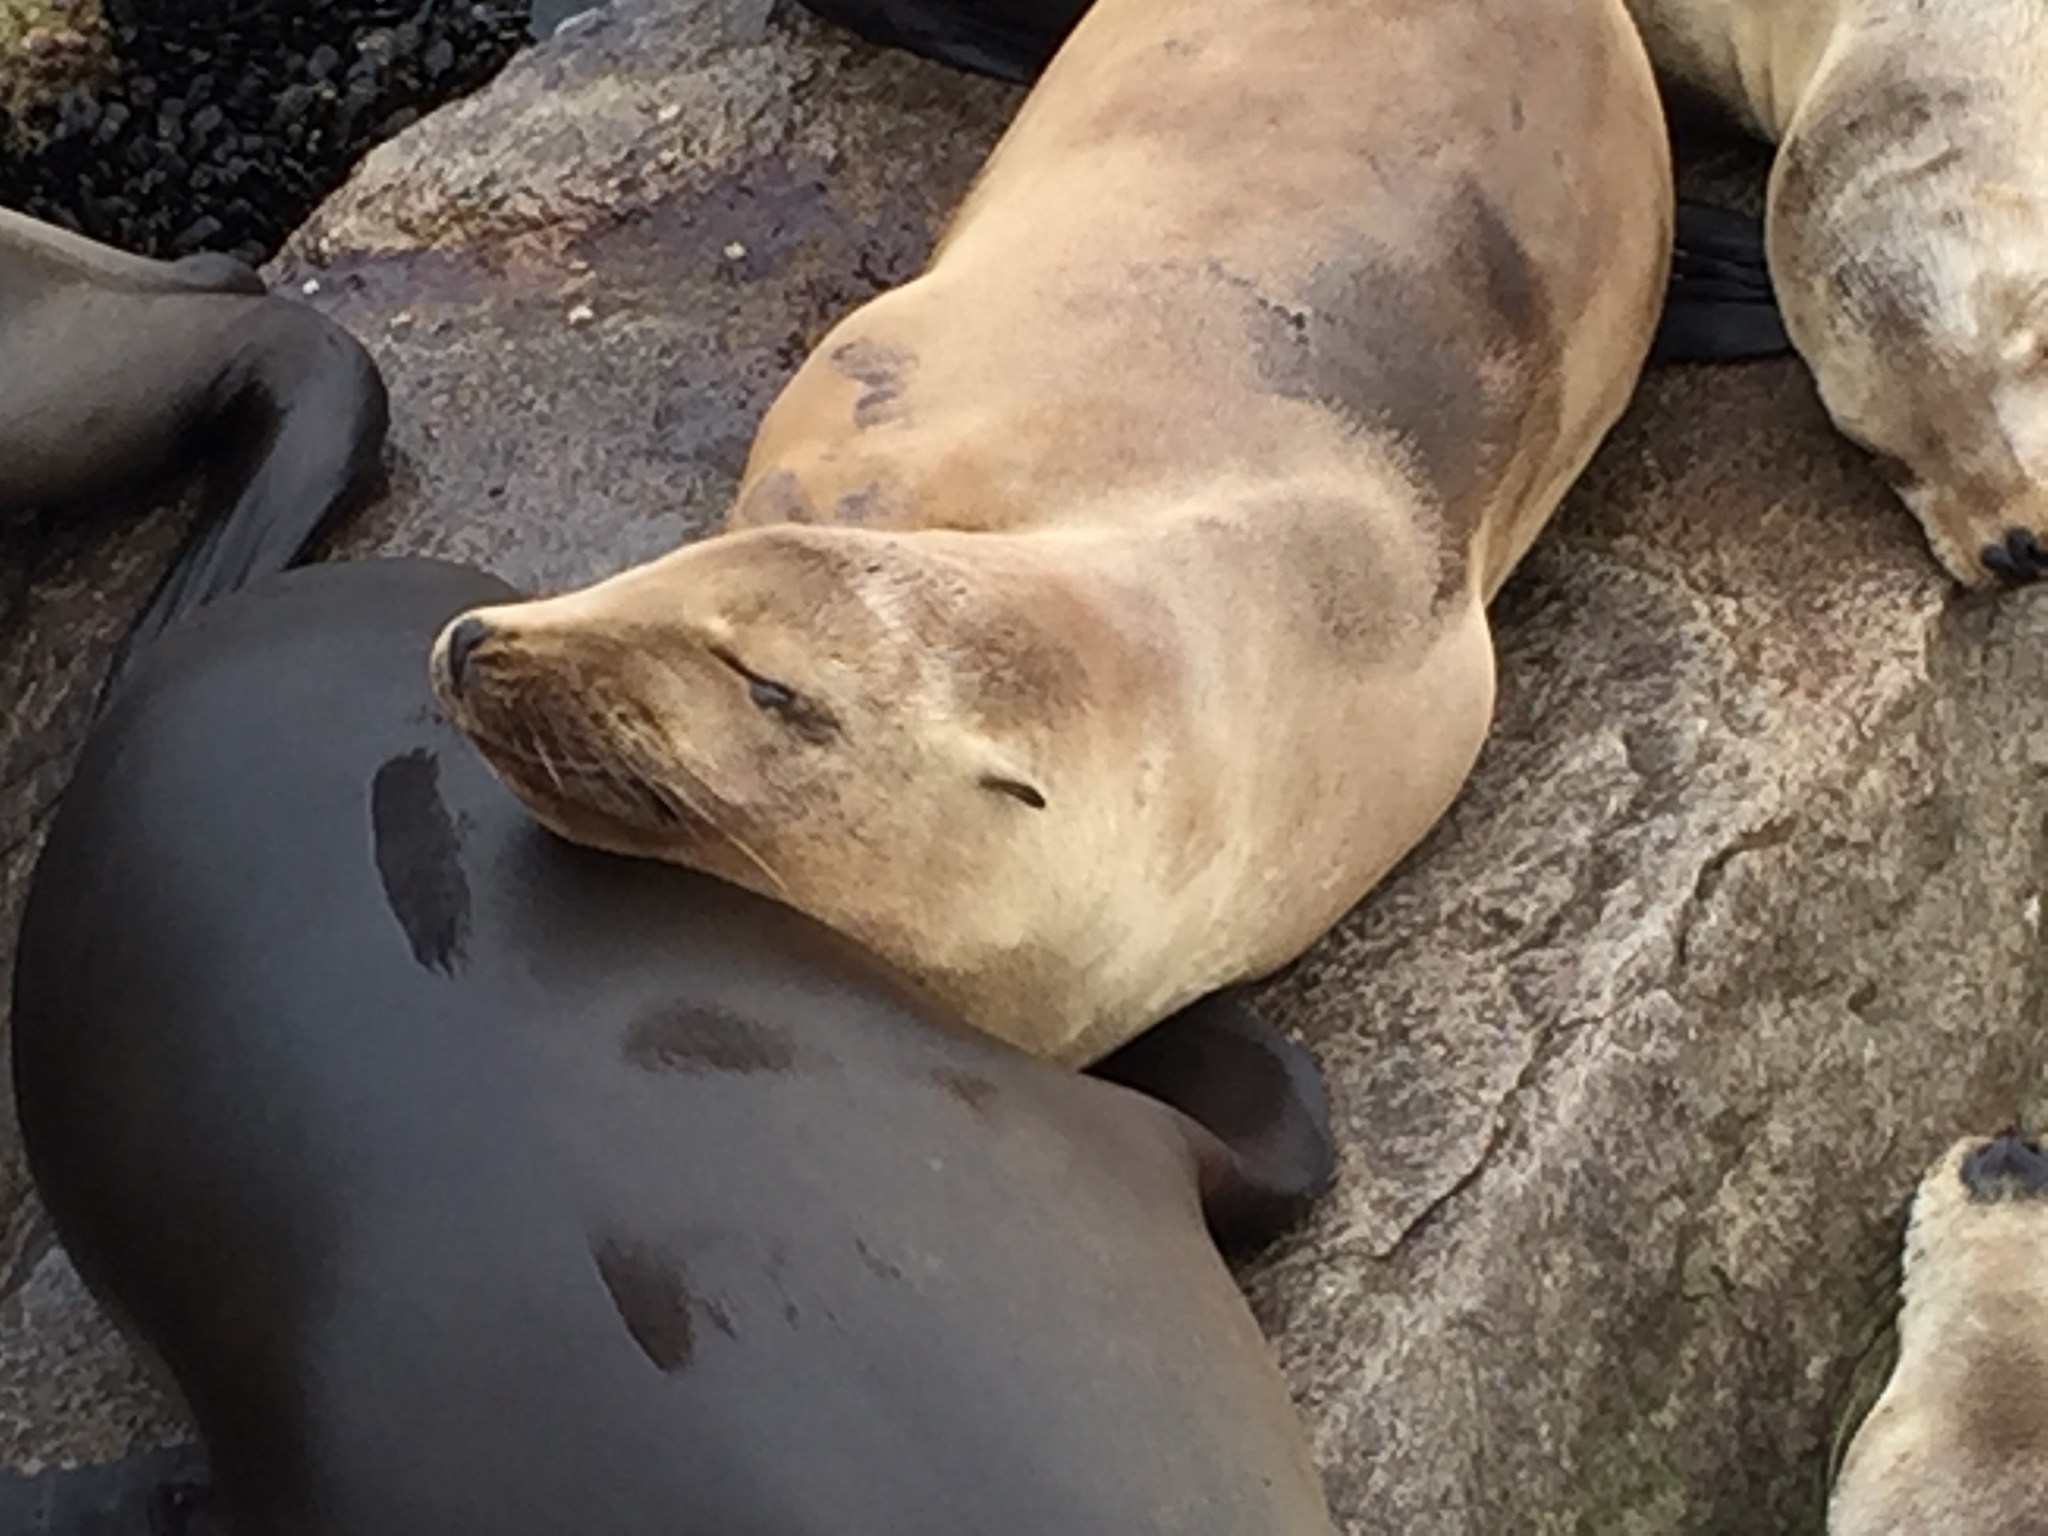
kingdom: Animalia
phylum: Chordata
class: Mammalia
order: Carnivora
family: Otariidae
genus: Zalophus
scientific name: Zalophus californianus
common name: California sea lion
